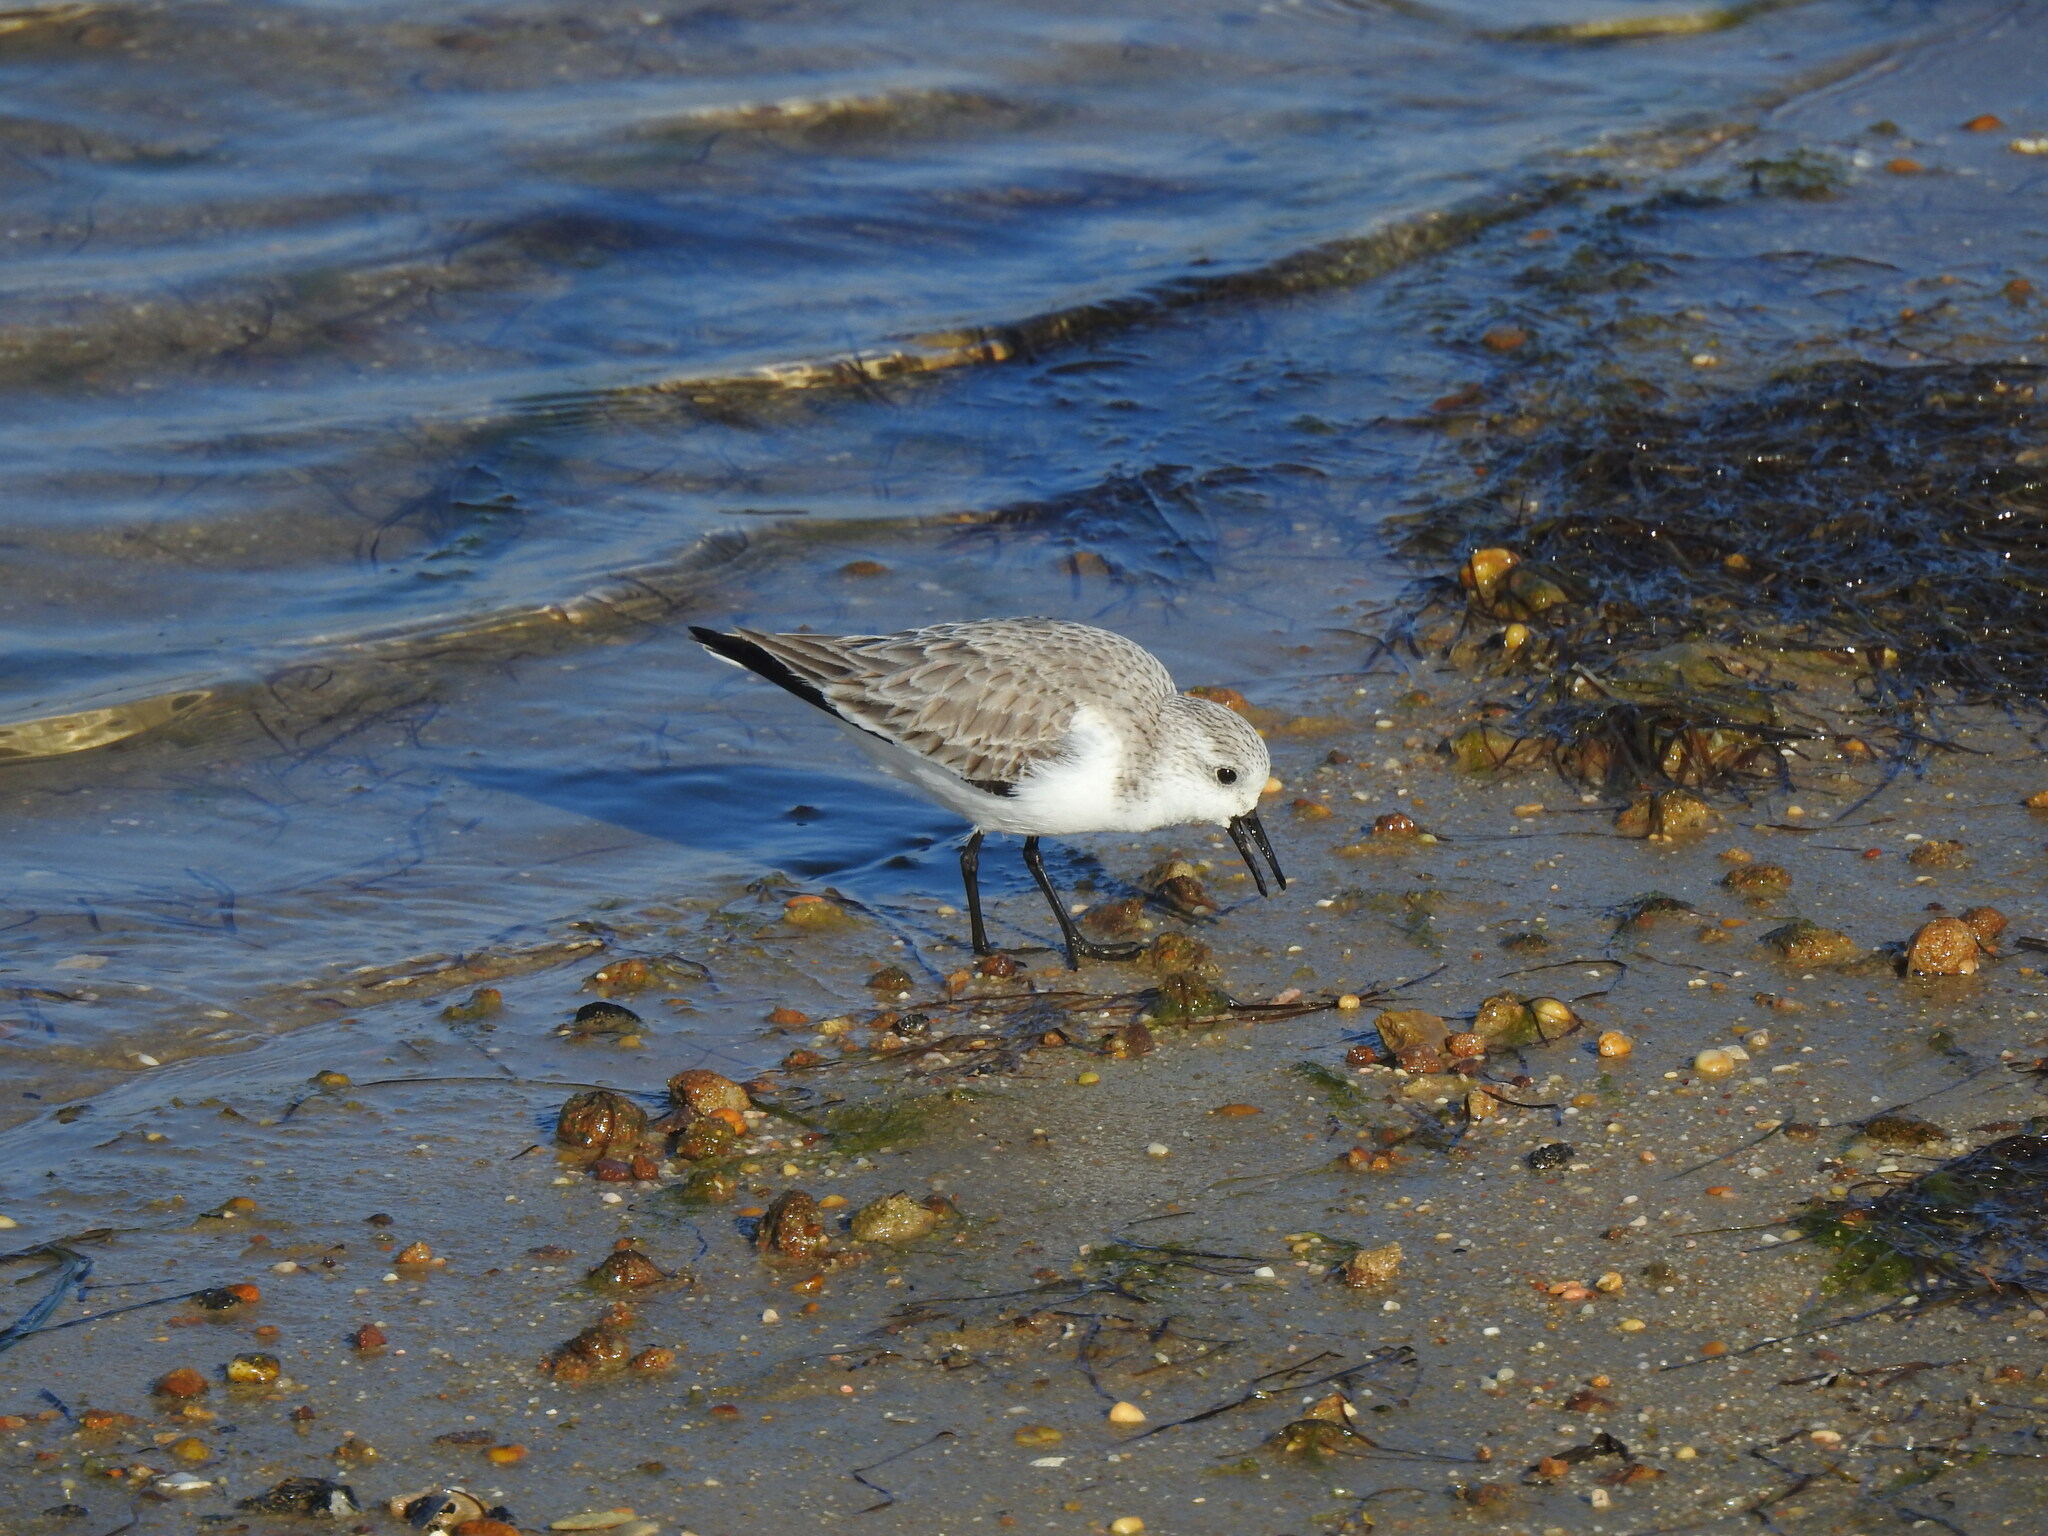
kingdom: Animalia
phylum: Chordata
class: Aves
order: Charadriiformes
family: Scolopacidae
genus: Calidris
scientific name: Calidris alba
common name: Sanderling
